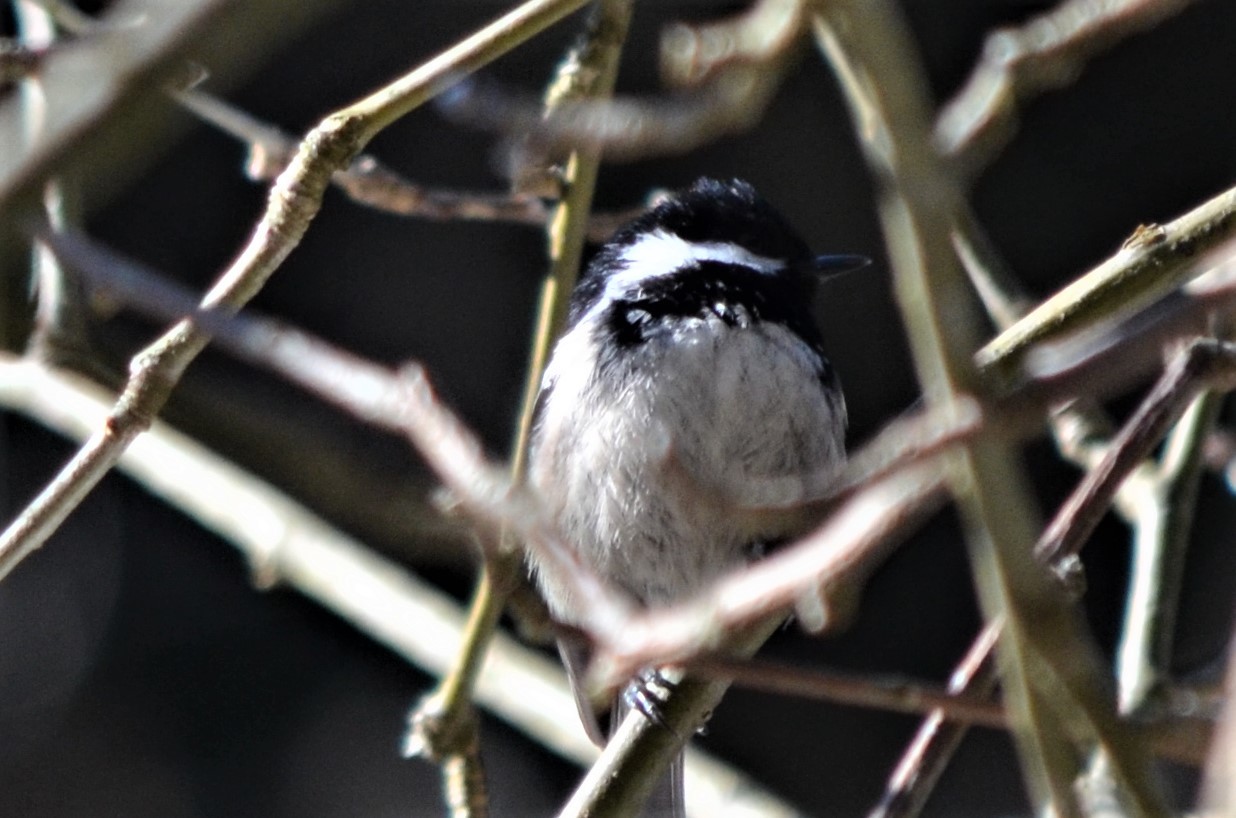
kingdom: Animalia
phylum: Chordata
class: Aves
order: Passeriformes
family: Paridae
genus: Periparus
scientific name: Periparus ater
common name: Coal tit
